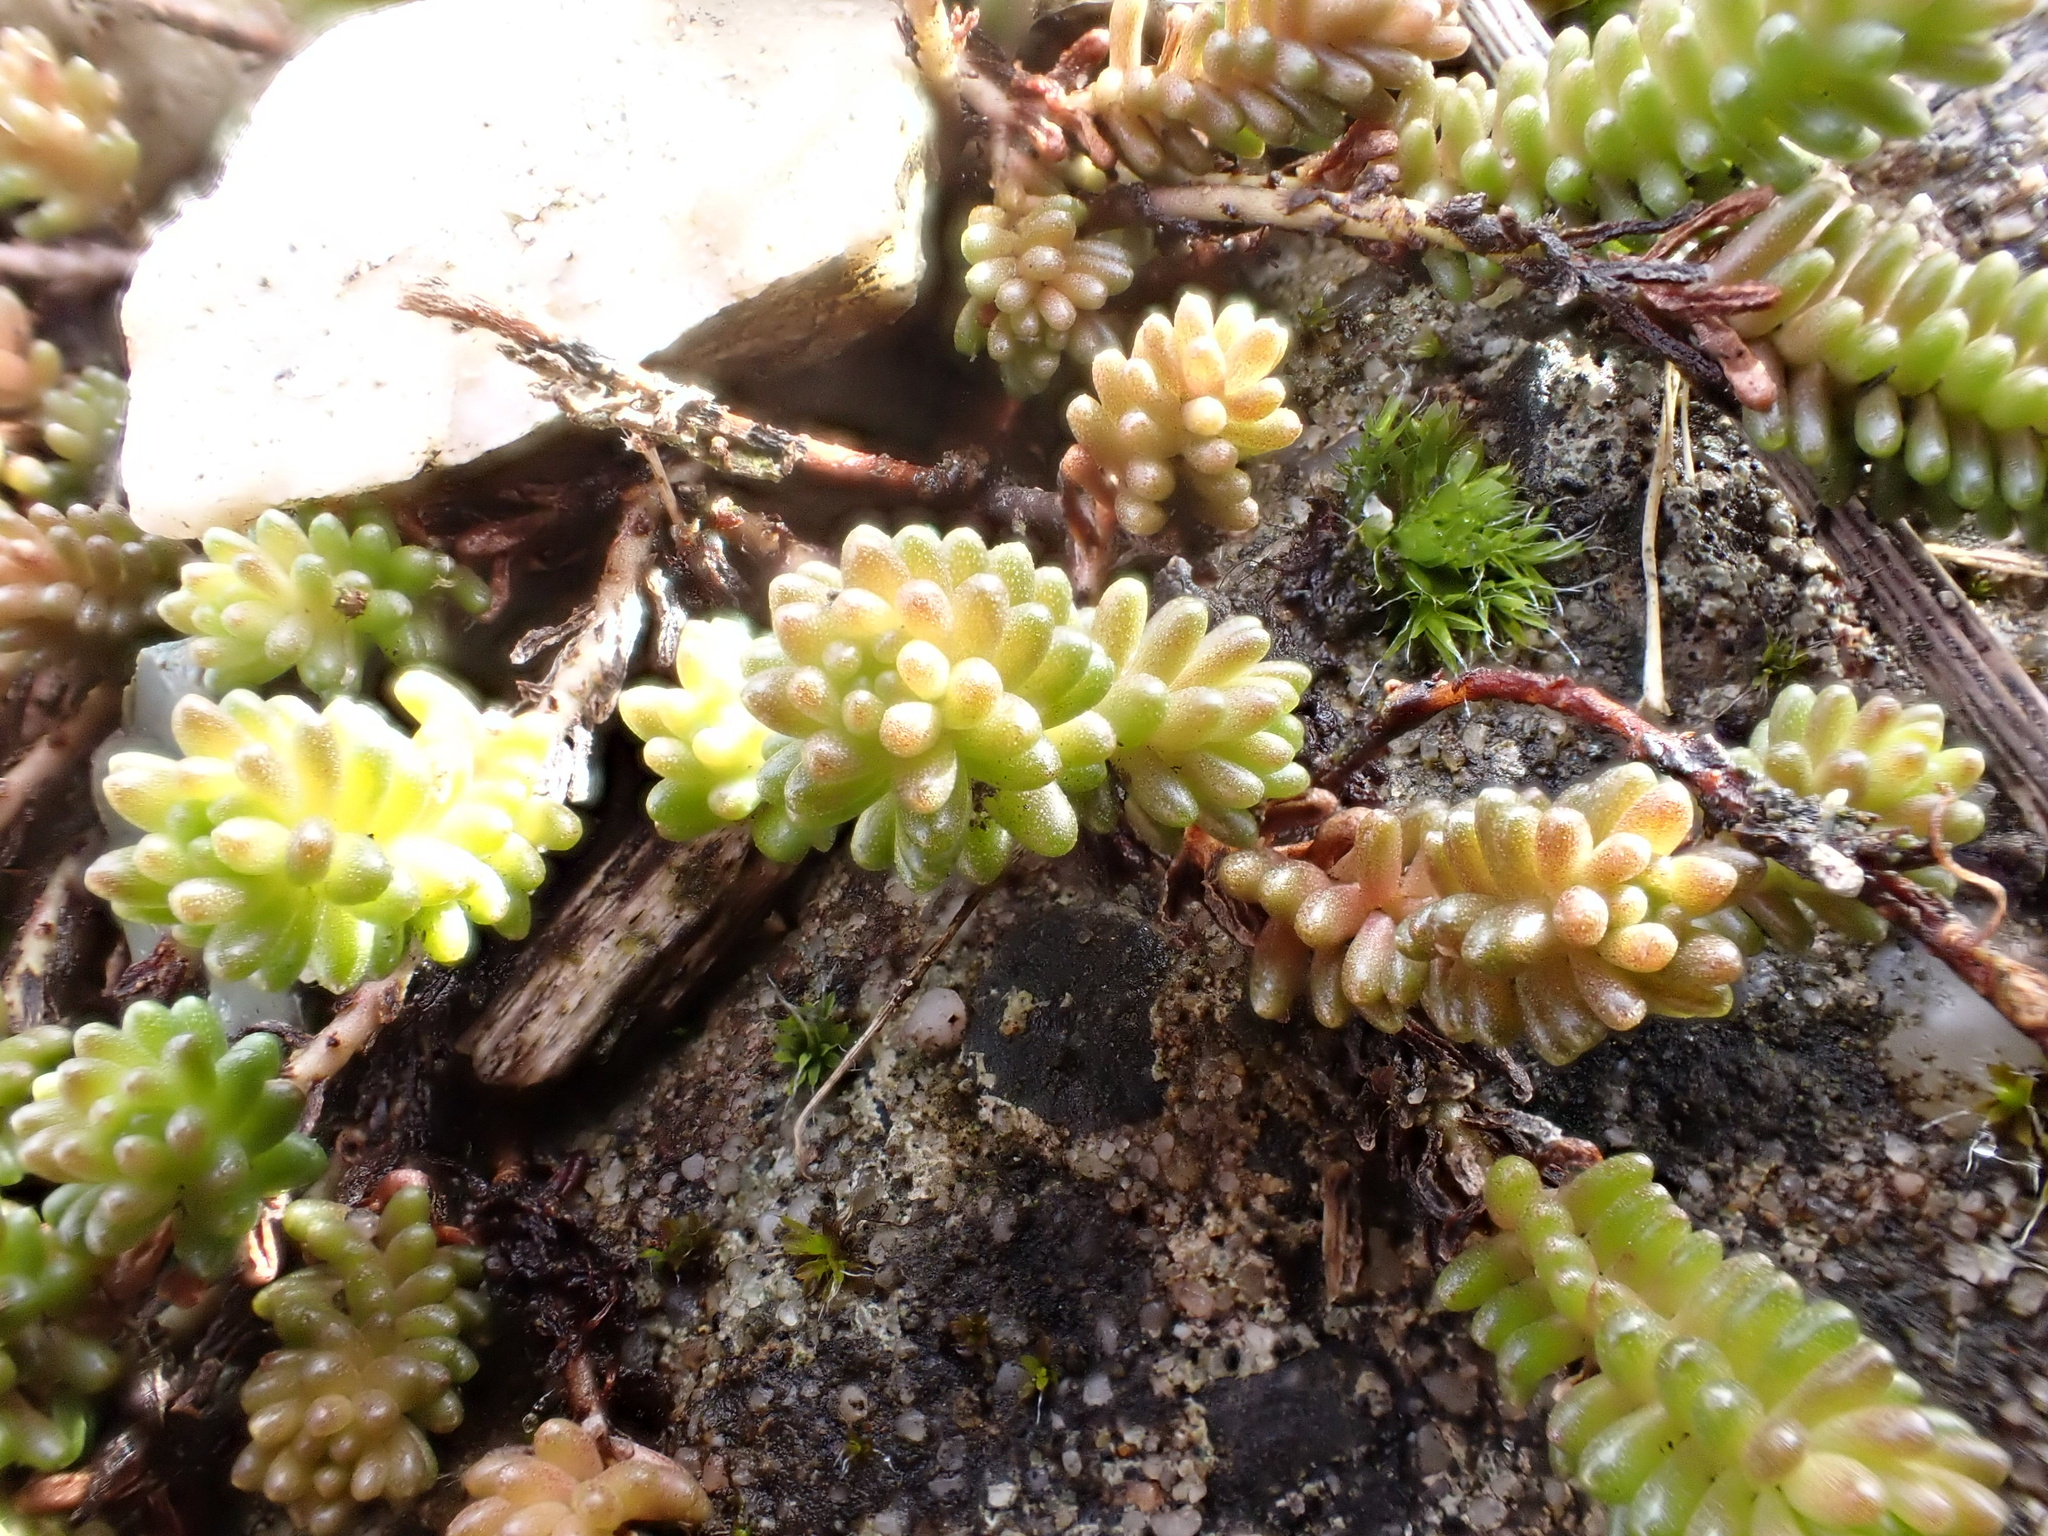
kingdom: Plantae
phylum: Tracheophyta
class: Magnoliopsida
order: Saxifragales
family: Crassulaceae
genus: Sedum
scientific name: Sedum sexangulare
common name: Tasteless stonecrop
